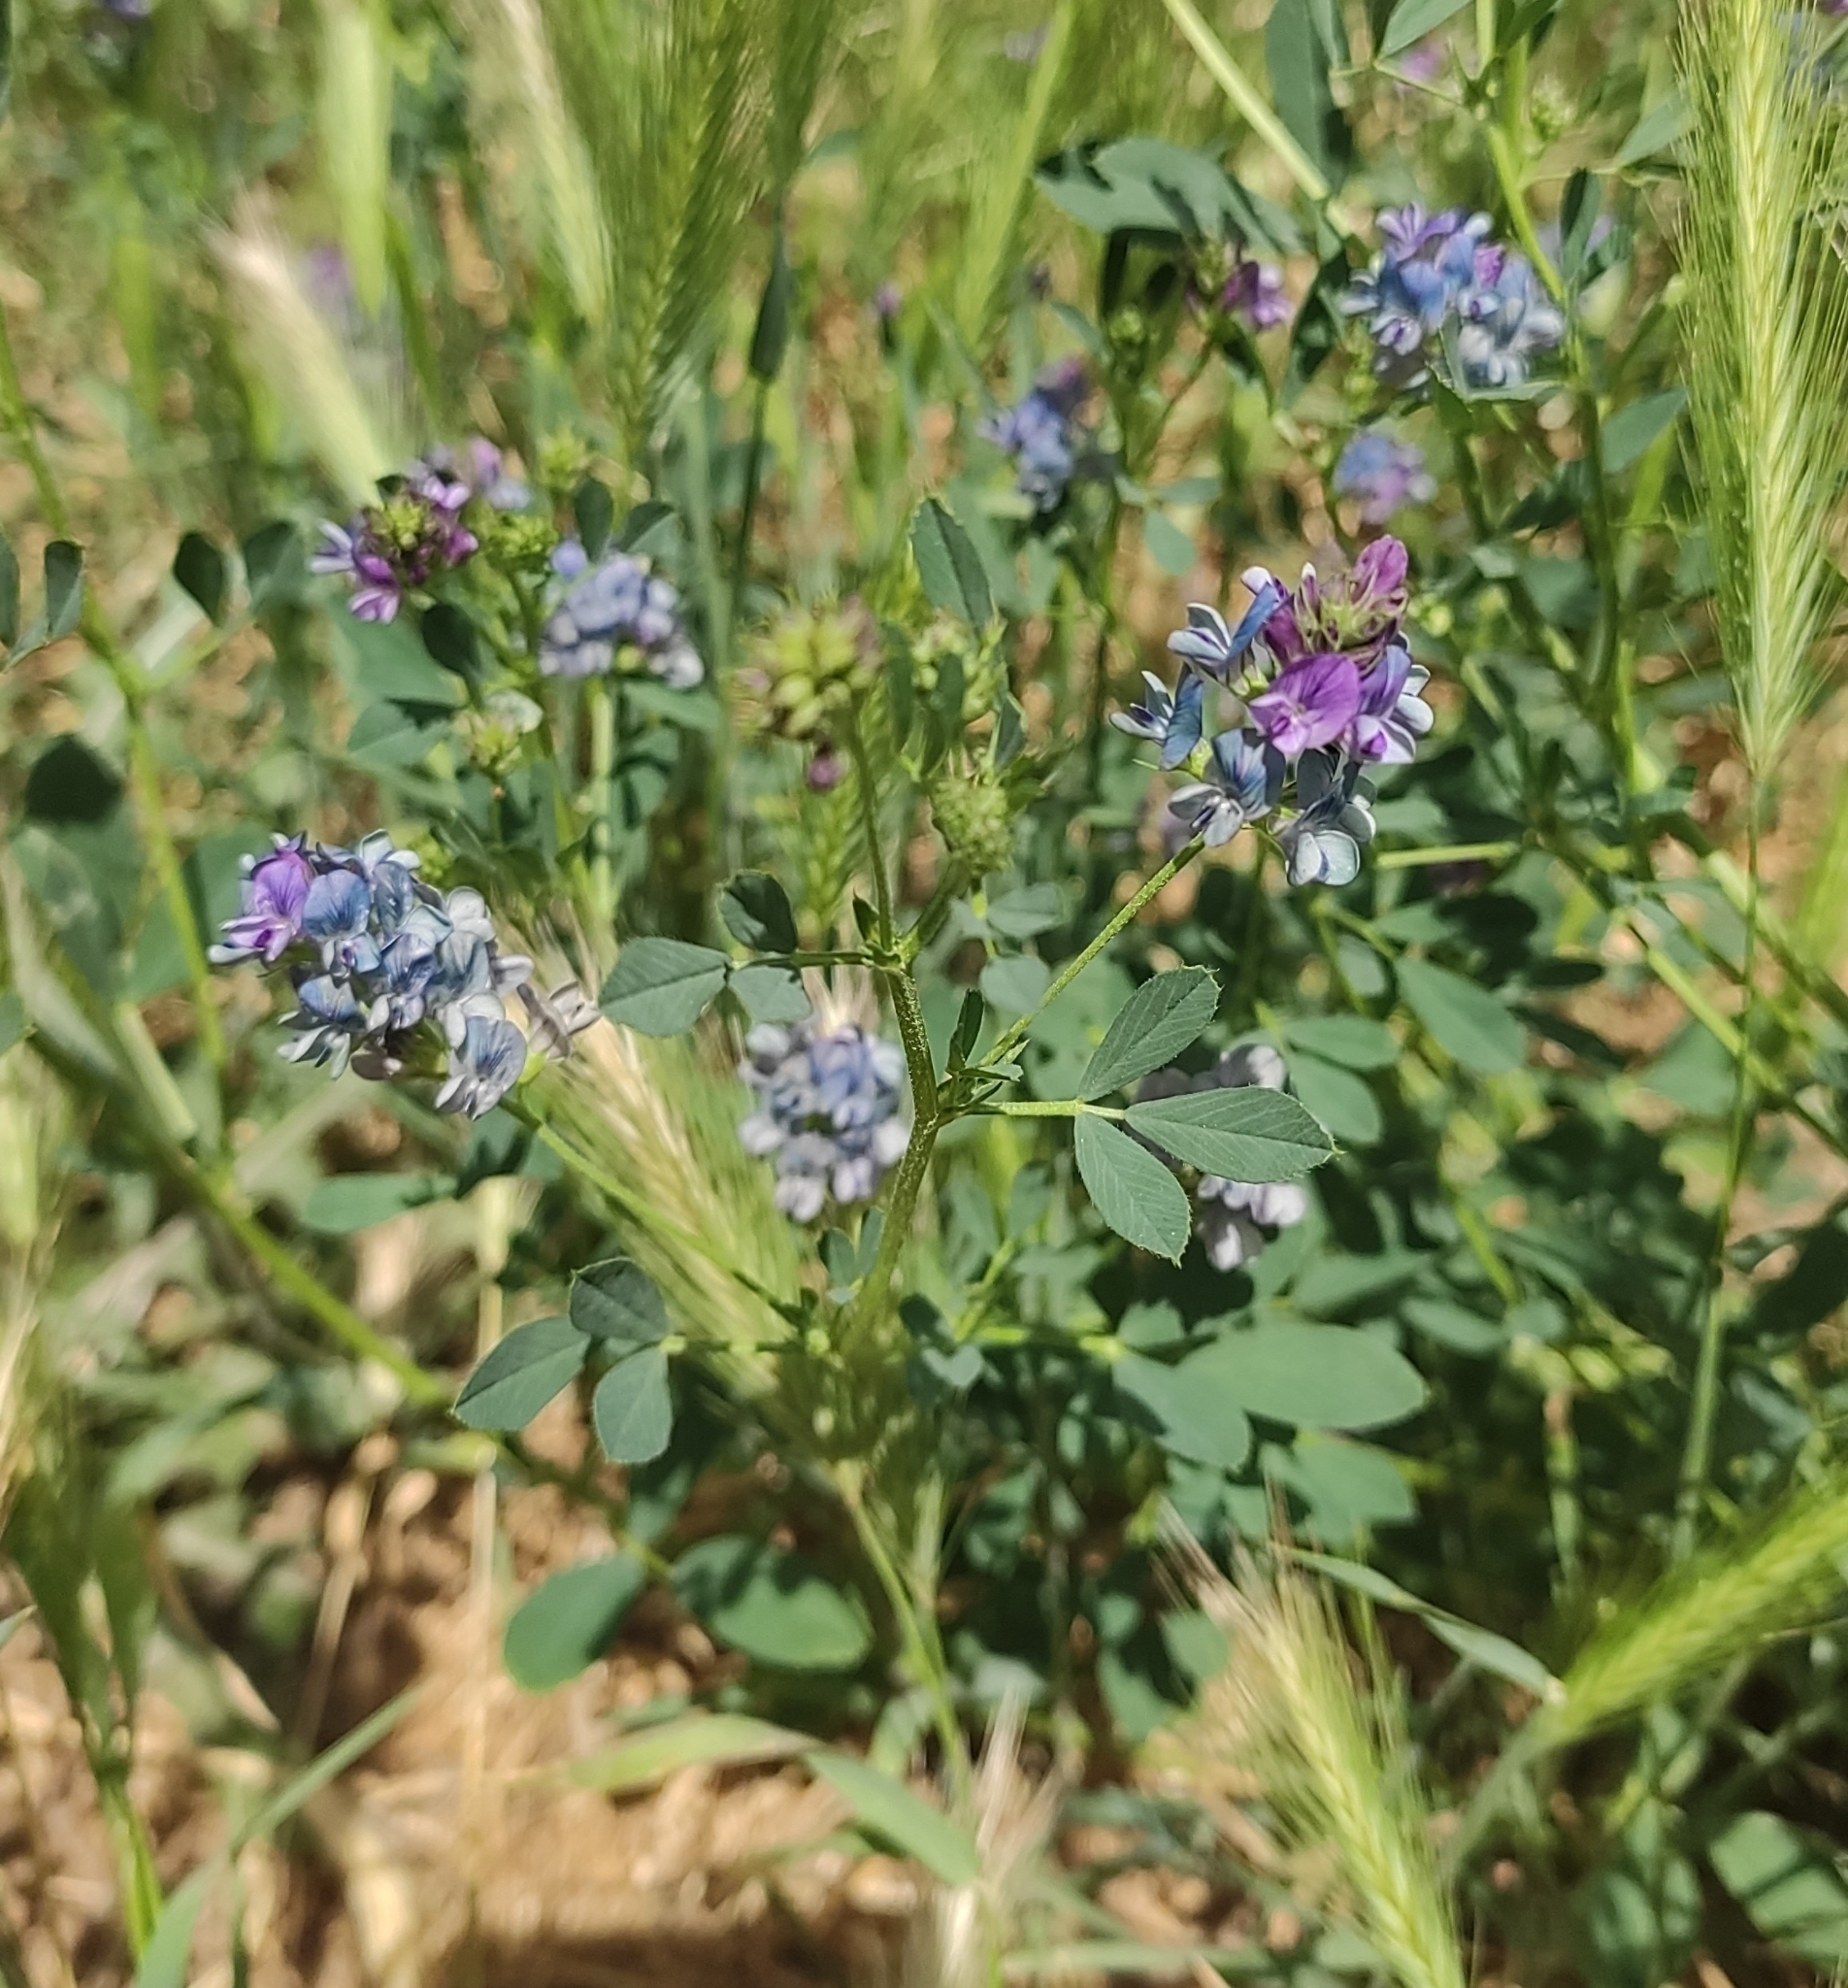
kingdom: Plantae
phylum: Tracheophyta
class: Magnoliopsida
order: Fabales
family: Fabaceae
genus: Medicago
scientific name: Medicago varia
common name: Sand lucerne
